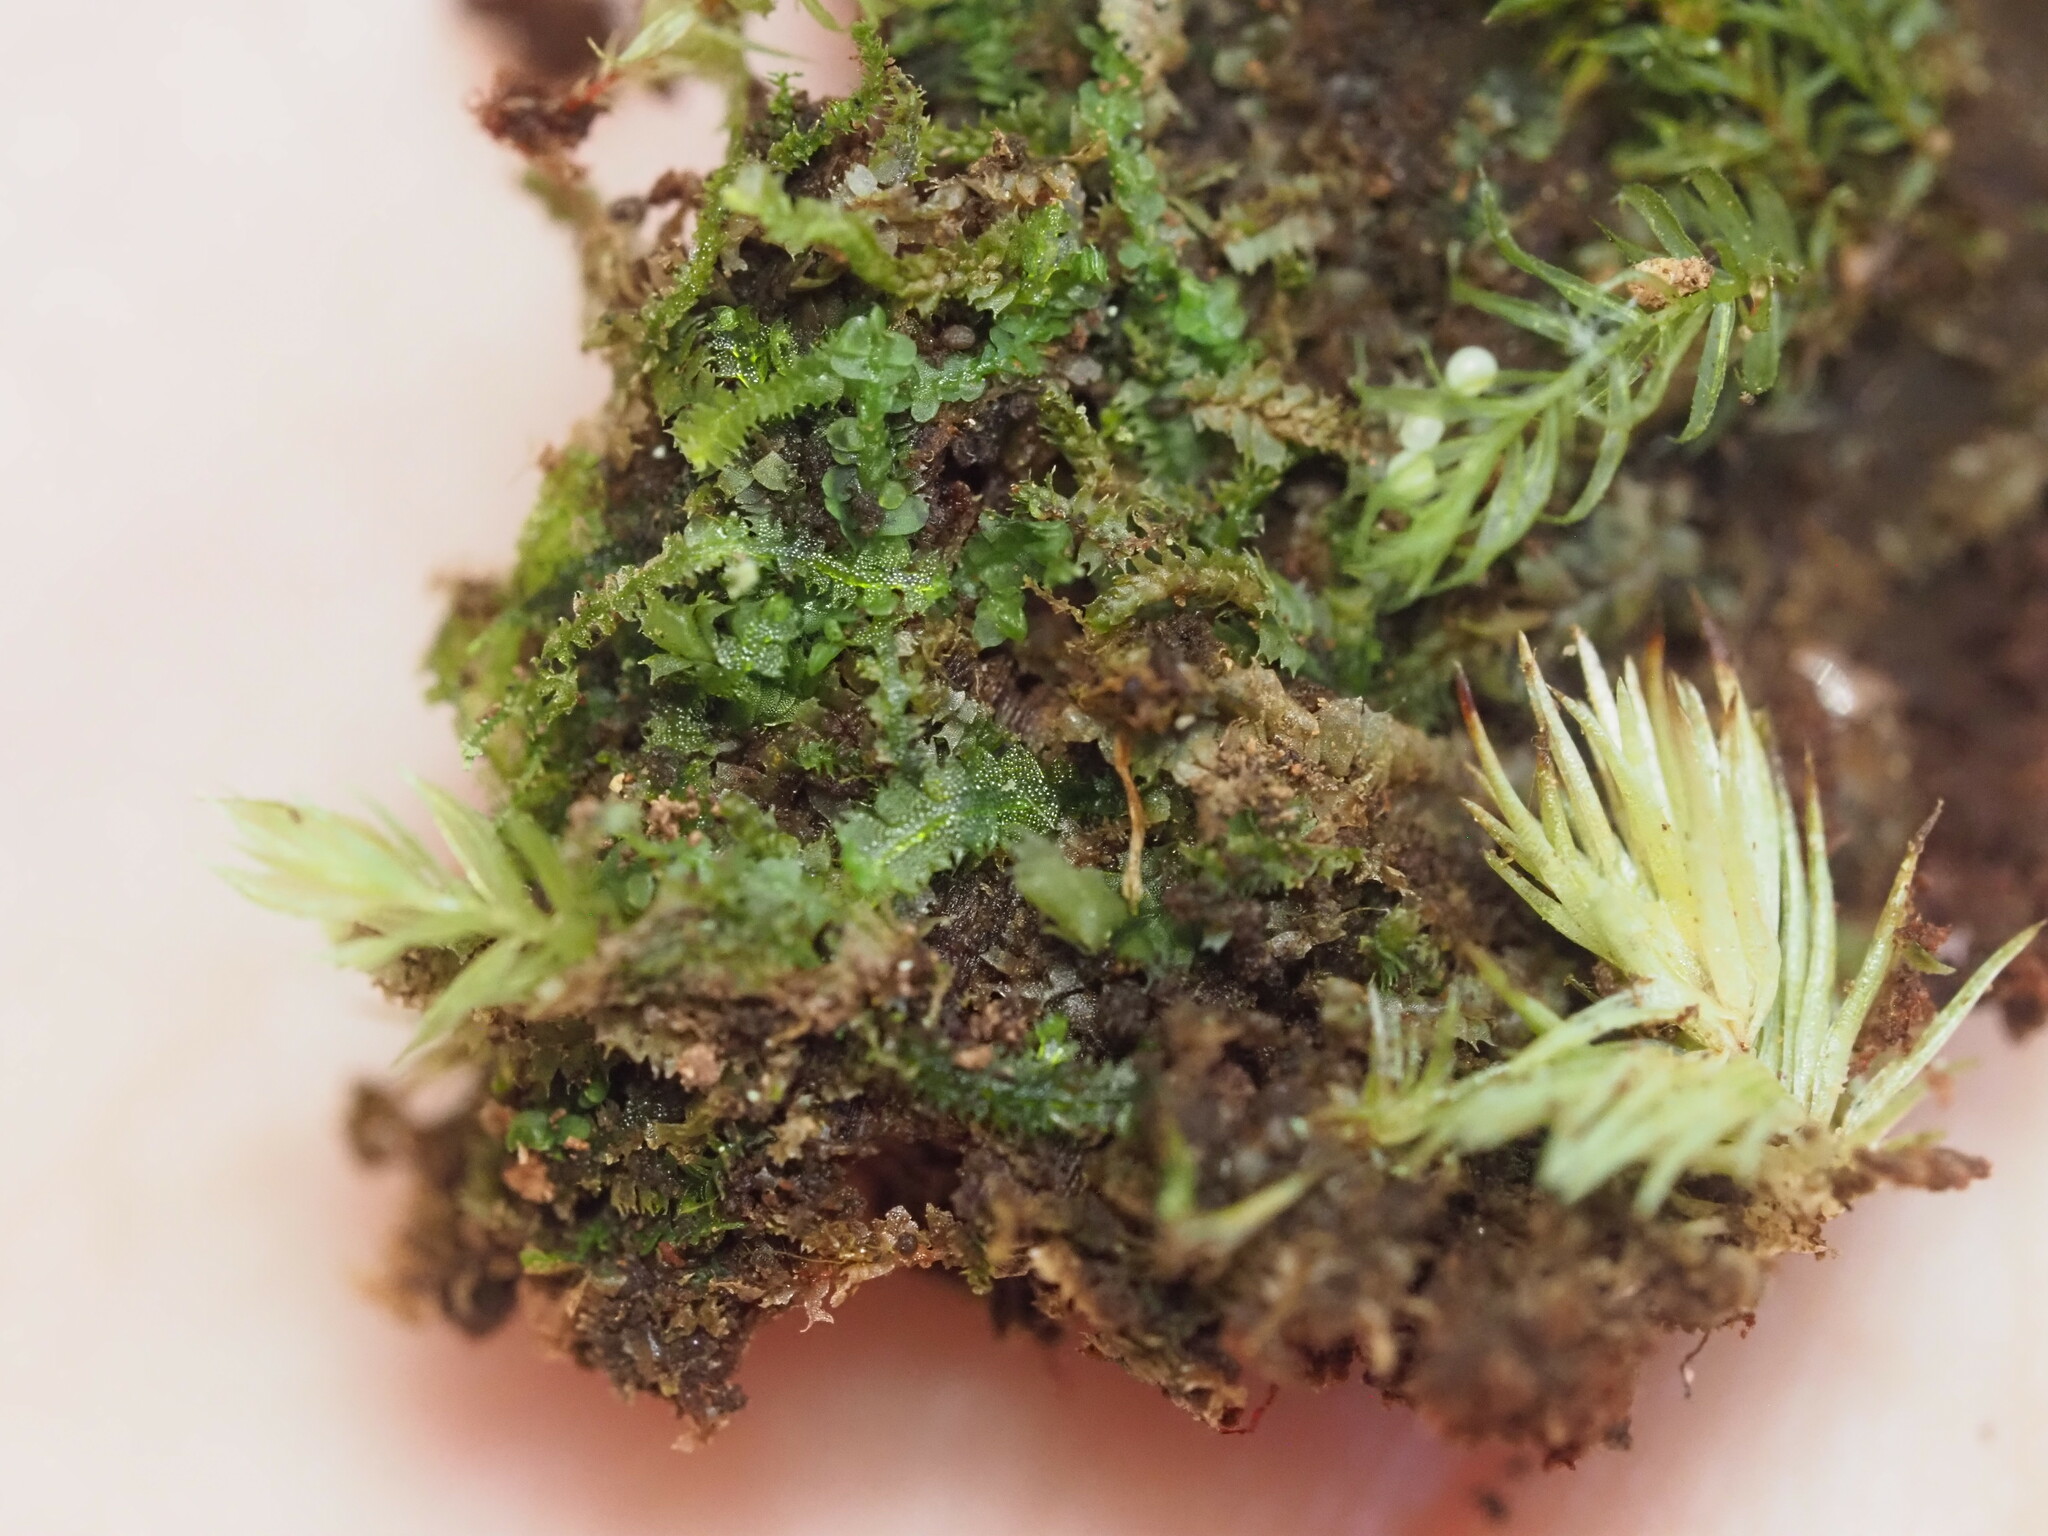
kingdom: Plantae
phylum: Marchantiophyta
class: Jungermanniopsida
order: Jungermanniales
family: Cephaloziaceae
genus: Fuscocephaloziopsis
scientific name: Fuscocephaloziopsis connivens
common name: Forcipated pincerwort
